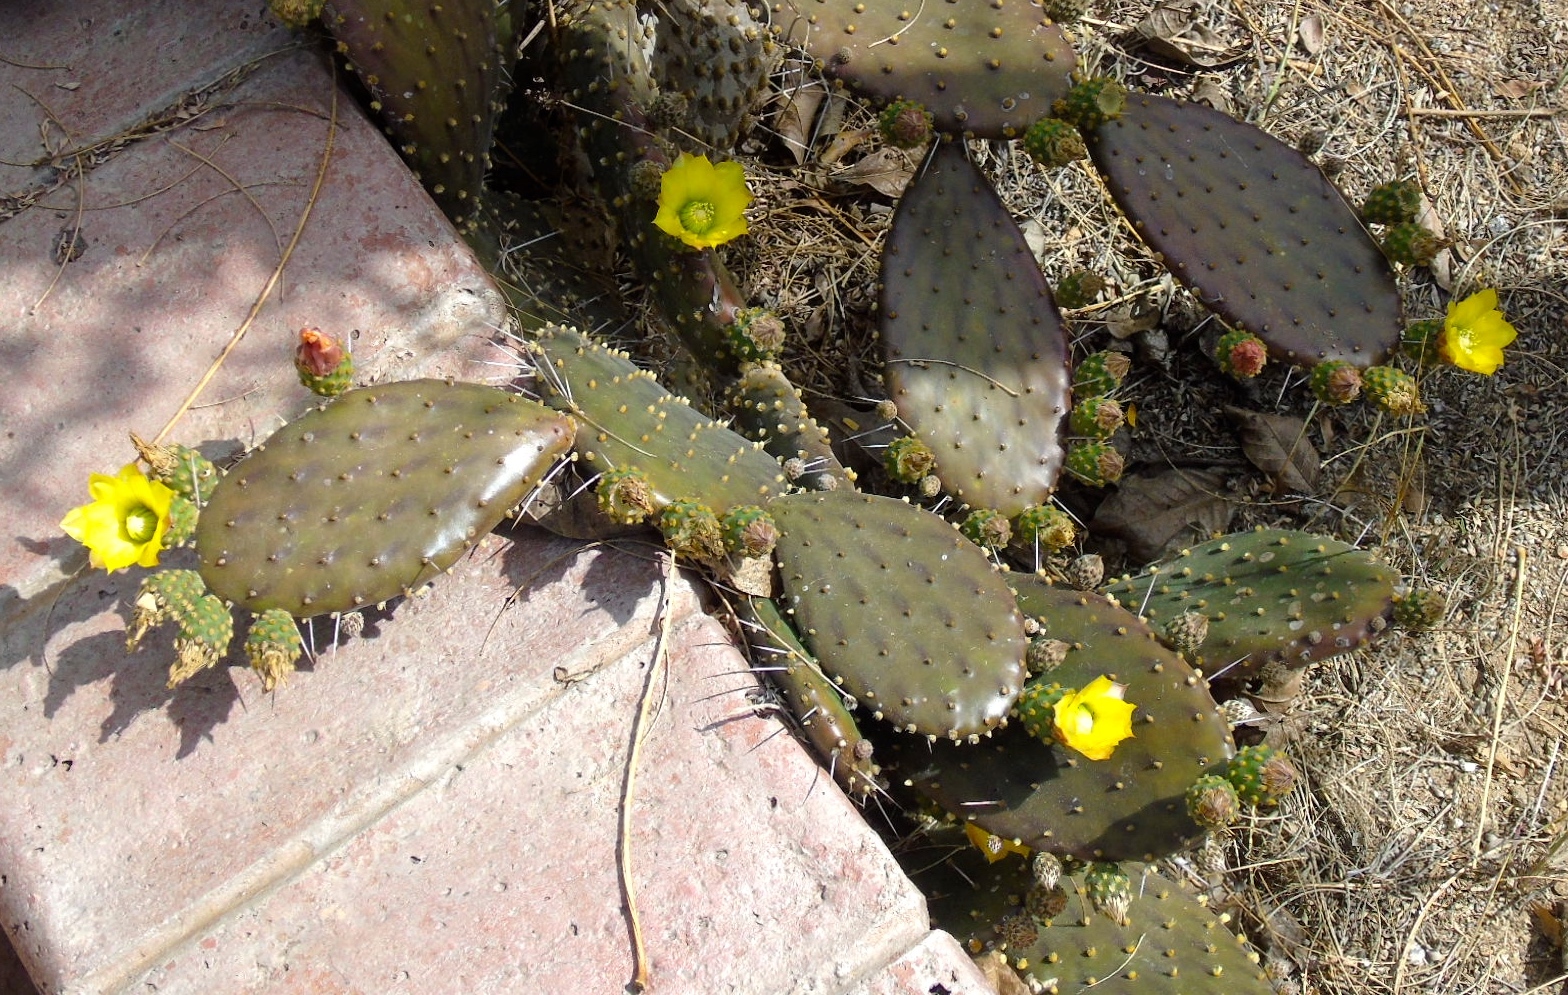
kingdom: Plantae
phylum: Tracheophyta
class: Magnoliopsida
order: Caryophyllales
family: Cactaceae
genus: Opuntia
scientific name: Opuntia decumbens
